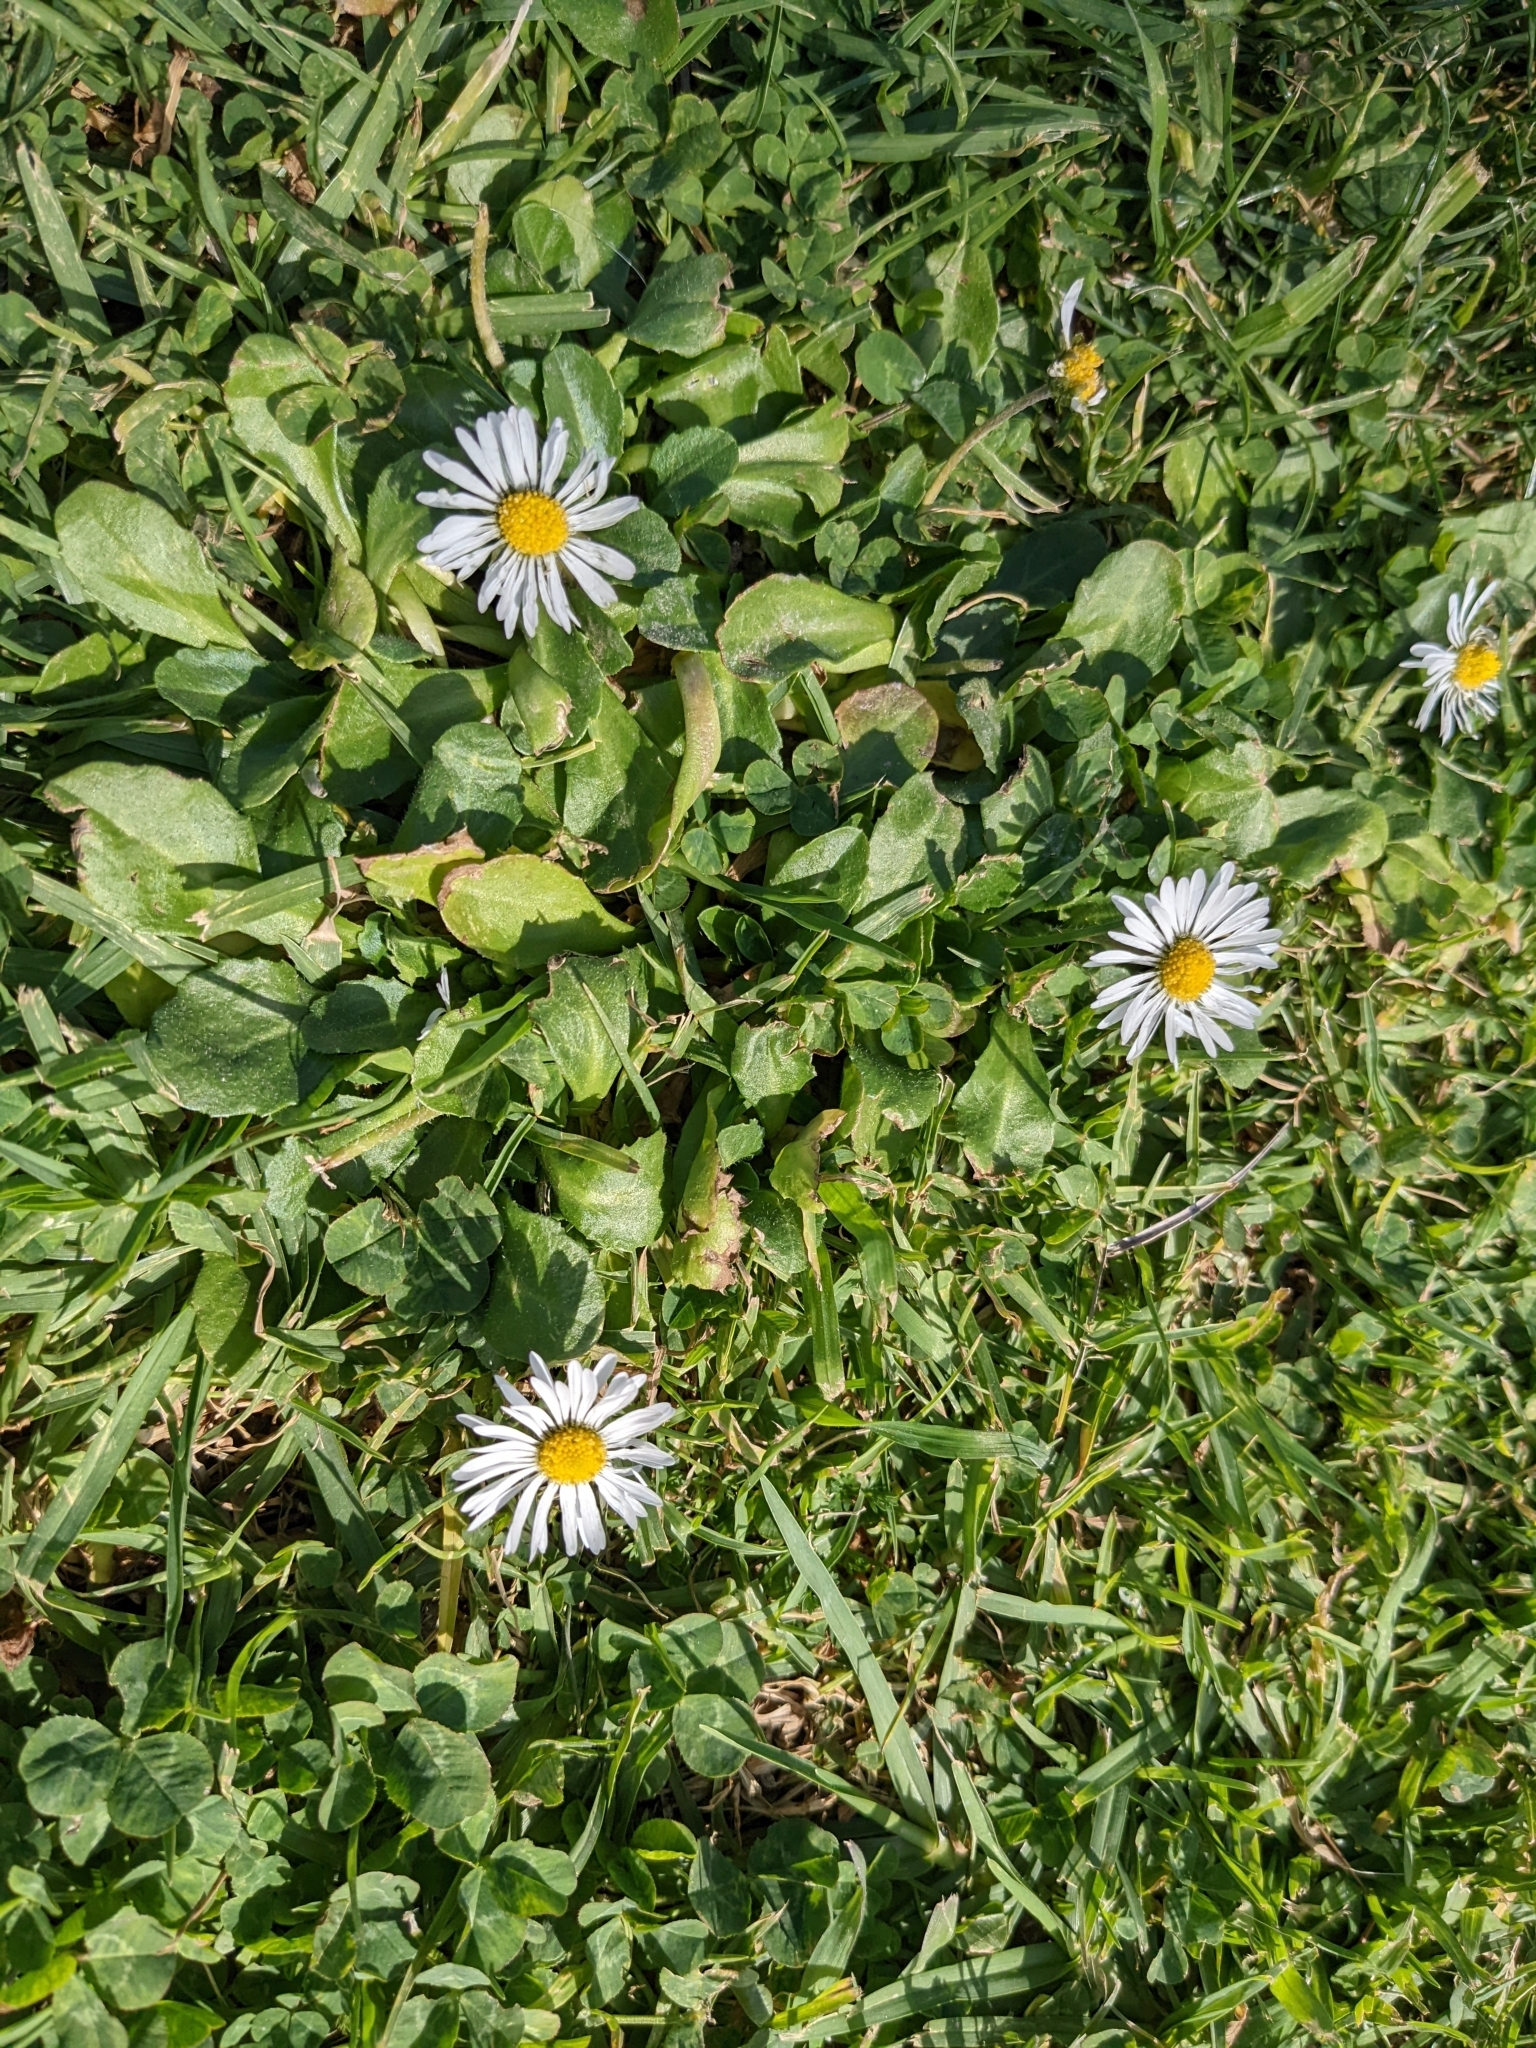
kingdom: Plantae
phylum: Tracheophyta
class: Magnoliopsida
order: Asterales
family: Asteraceae
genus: Bellis
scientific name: Bellis perennis
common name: Lawndaisy
